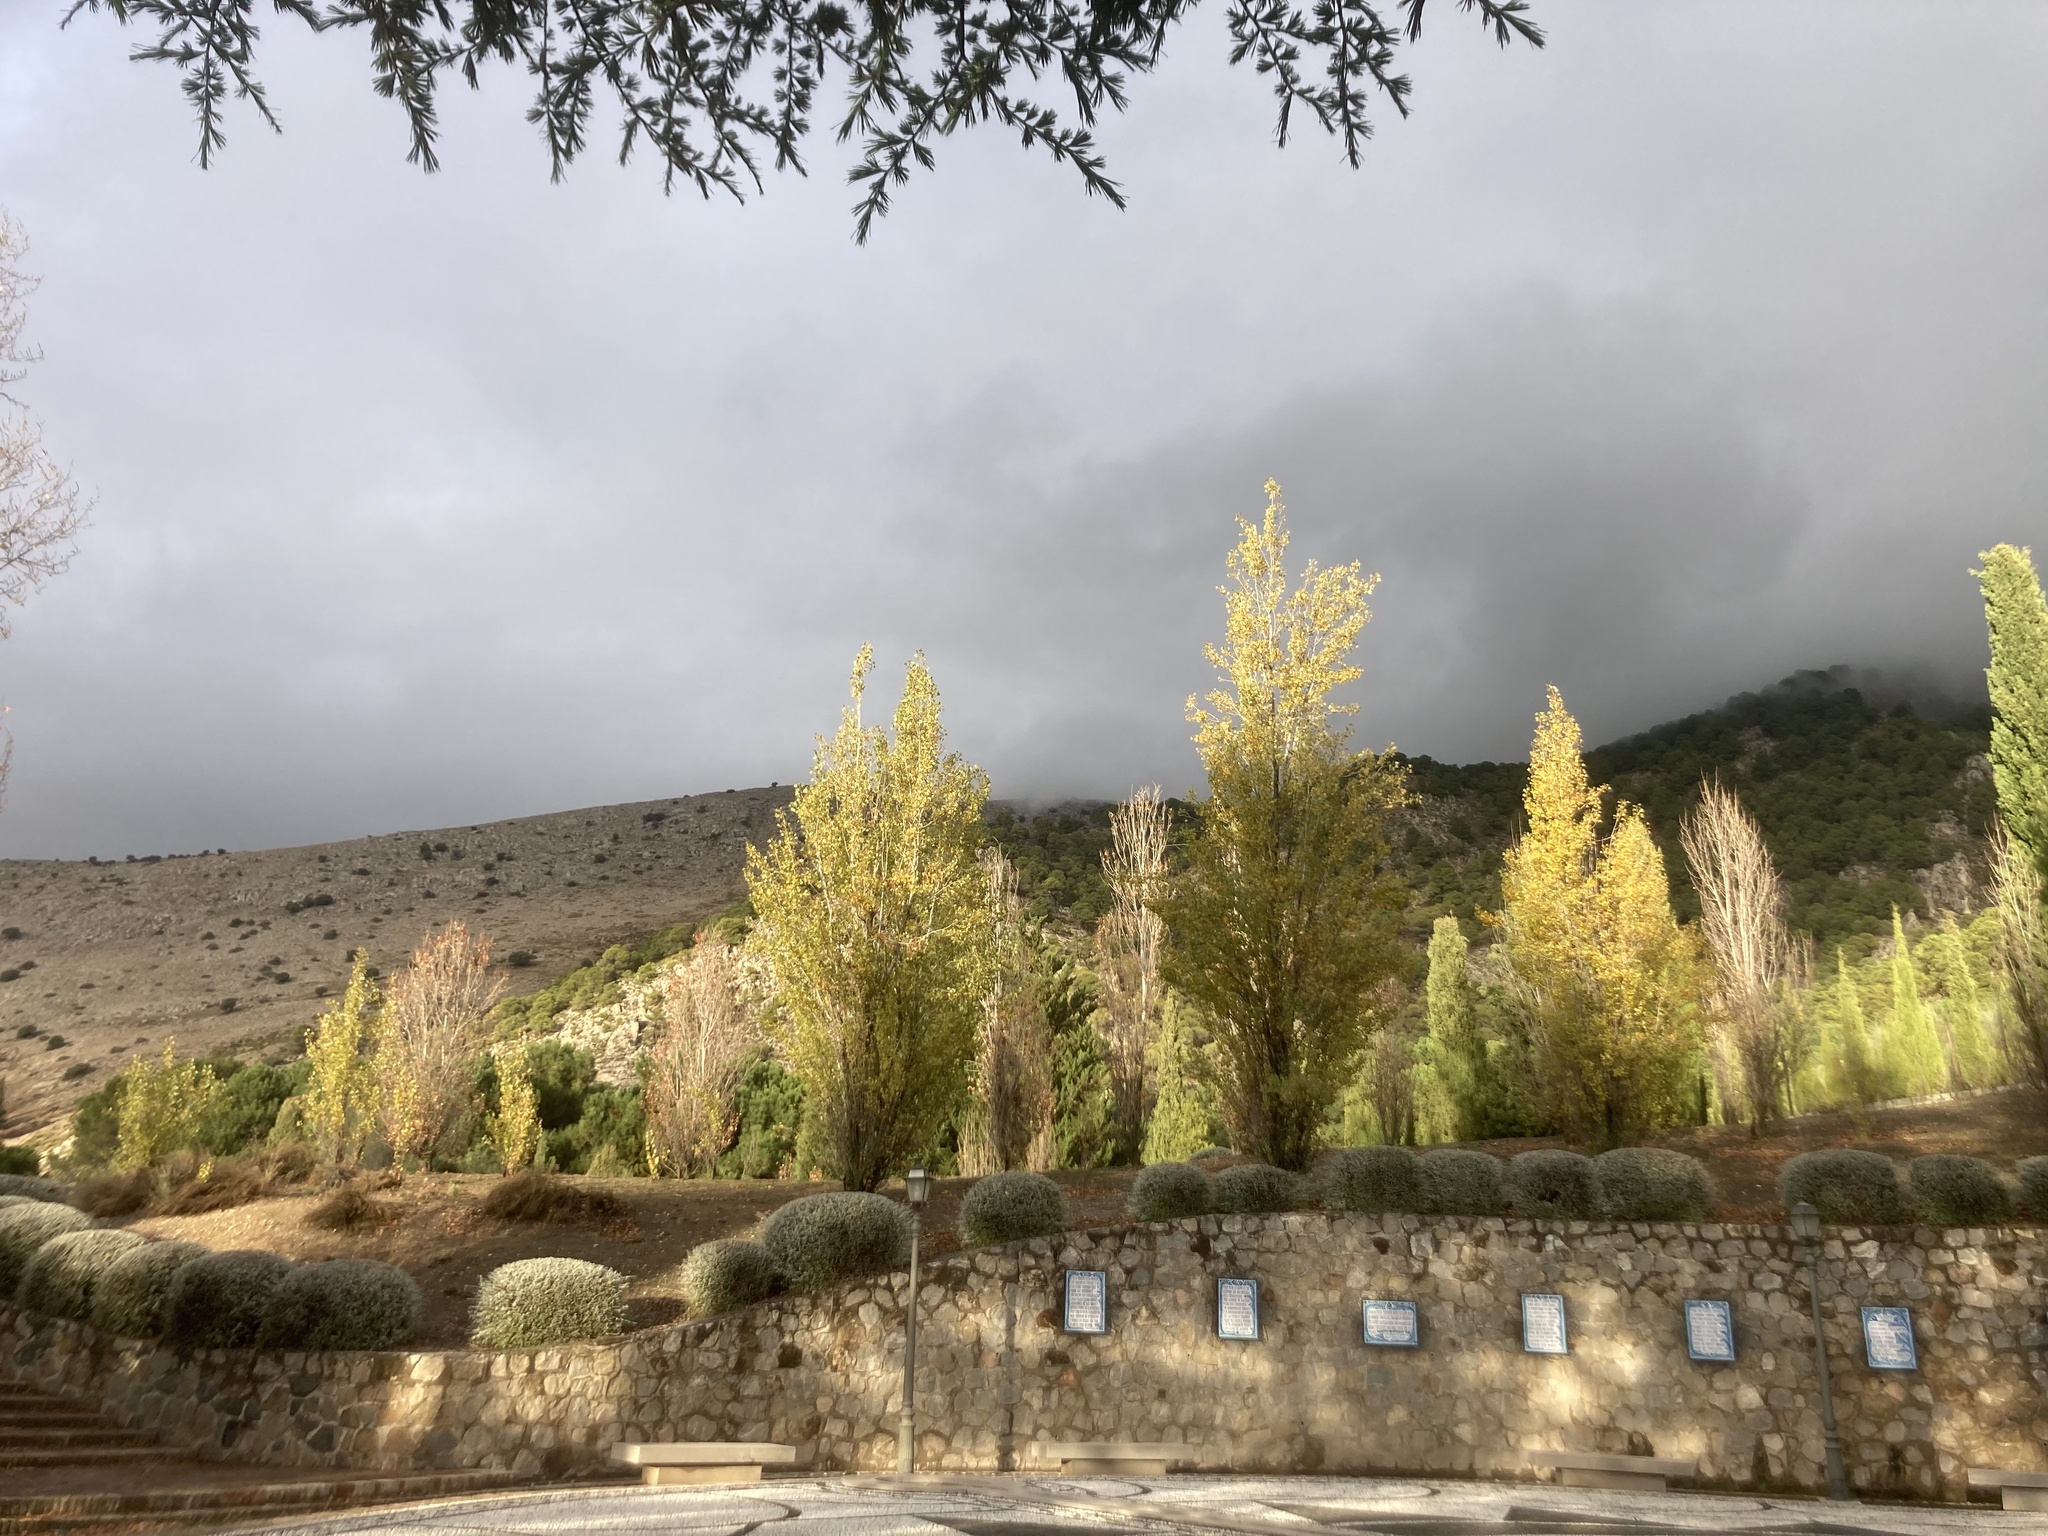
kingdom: Plantae
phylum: Tracheophyta
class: Magnoliopsida
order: Malpighiales
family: Salicaceae
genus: Populus
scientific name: Populus nigra
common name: Black poplar
